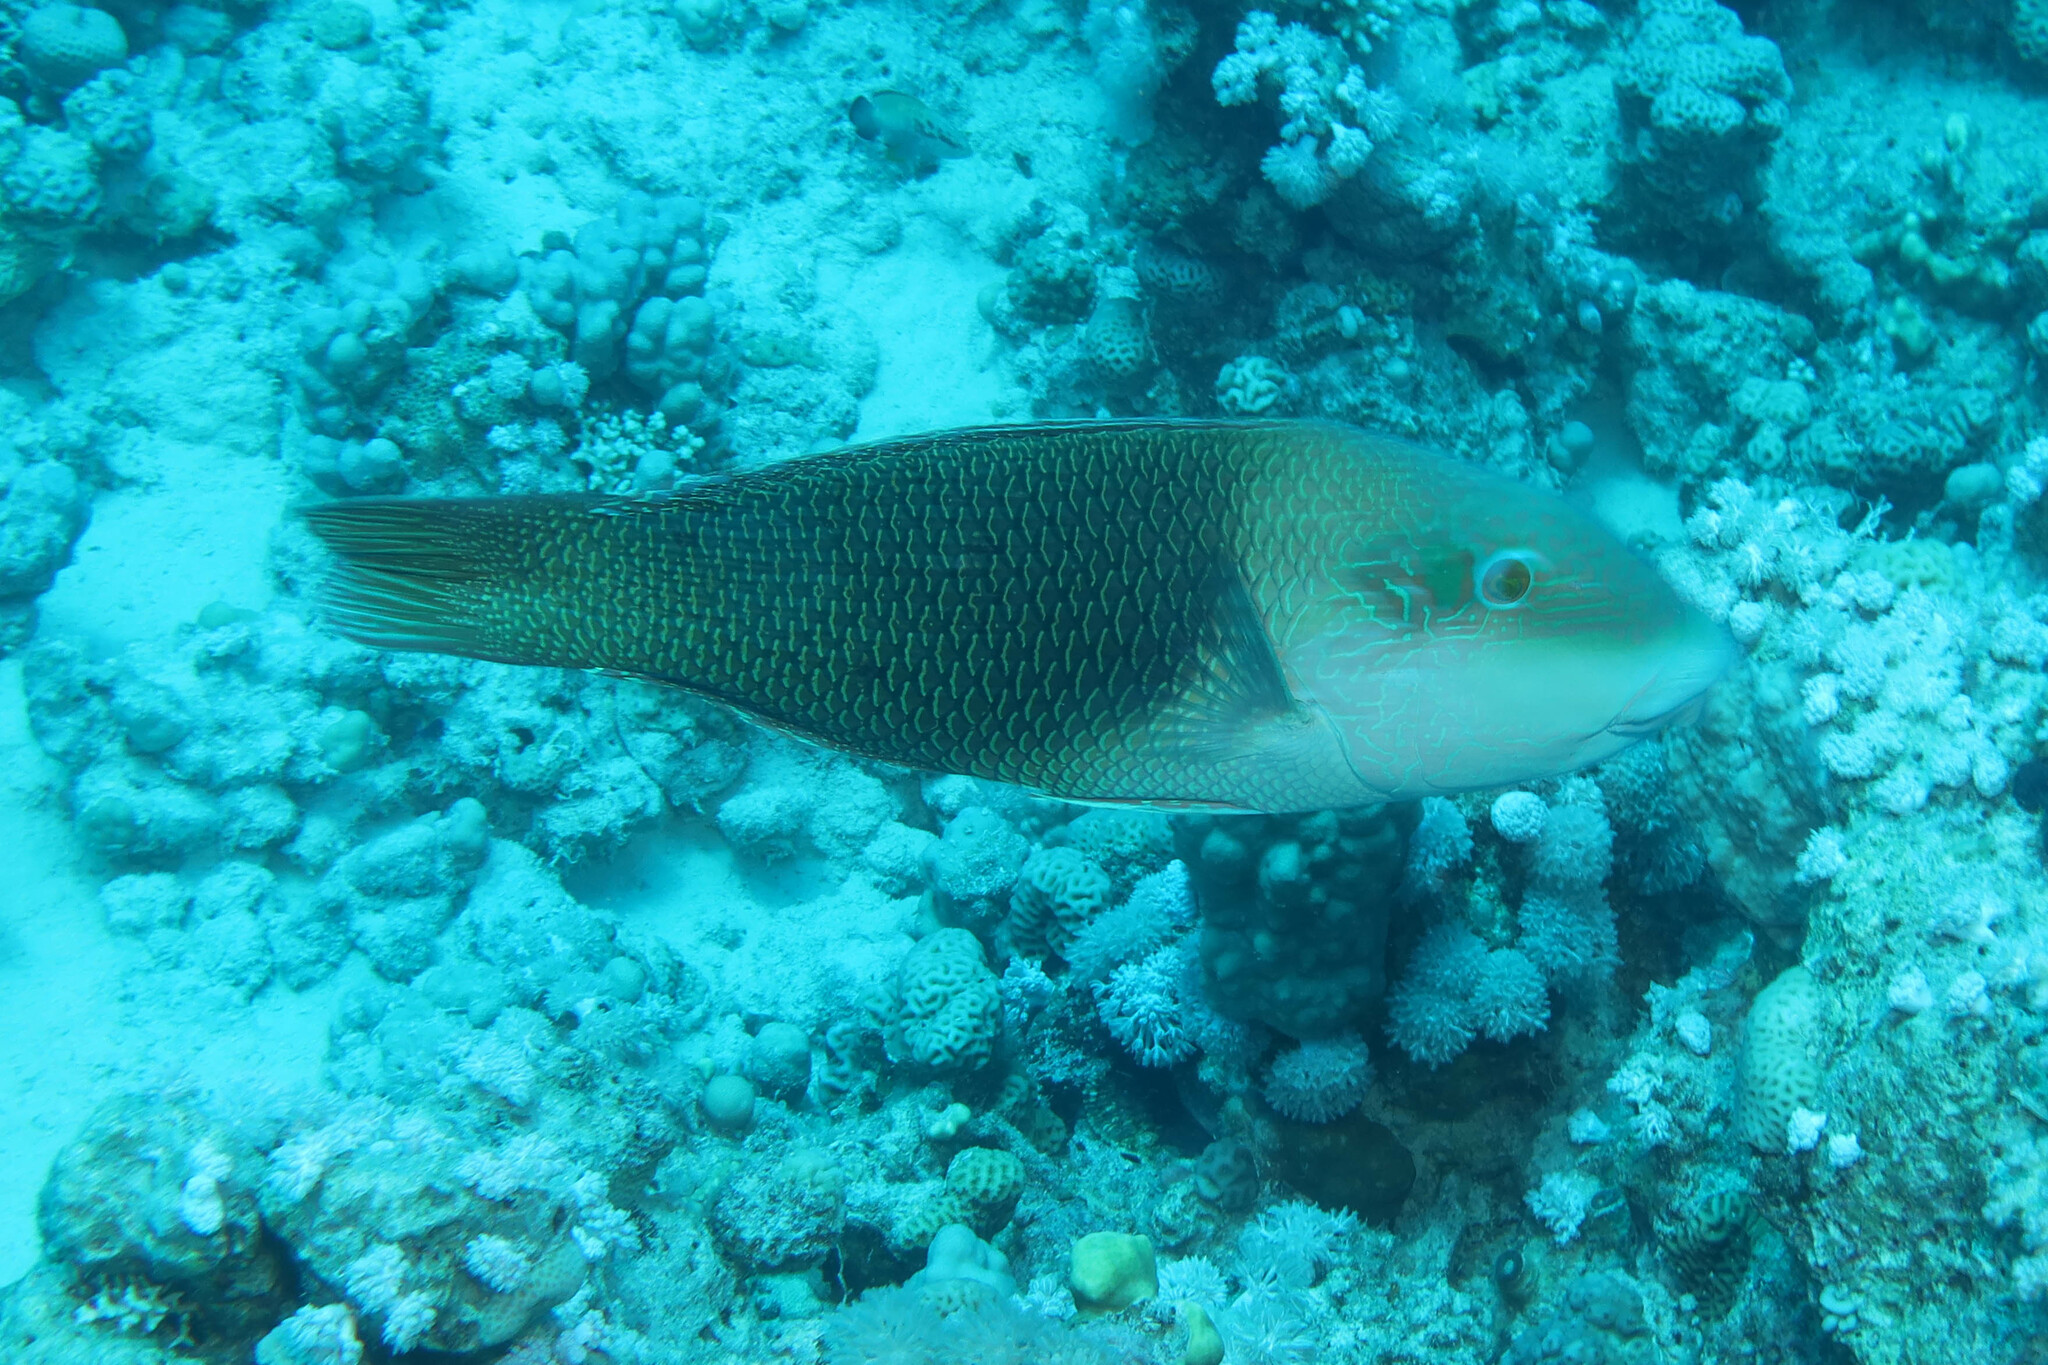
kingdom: Animalia
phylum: Chordata
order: Perciformes
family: Labridae
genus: Hemigymnus
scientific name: Hemigymnus melapterus
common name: Blackeye thicklip
